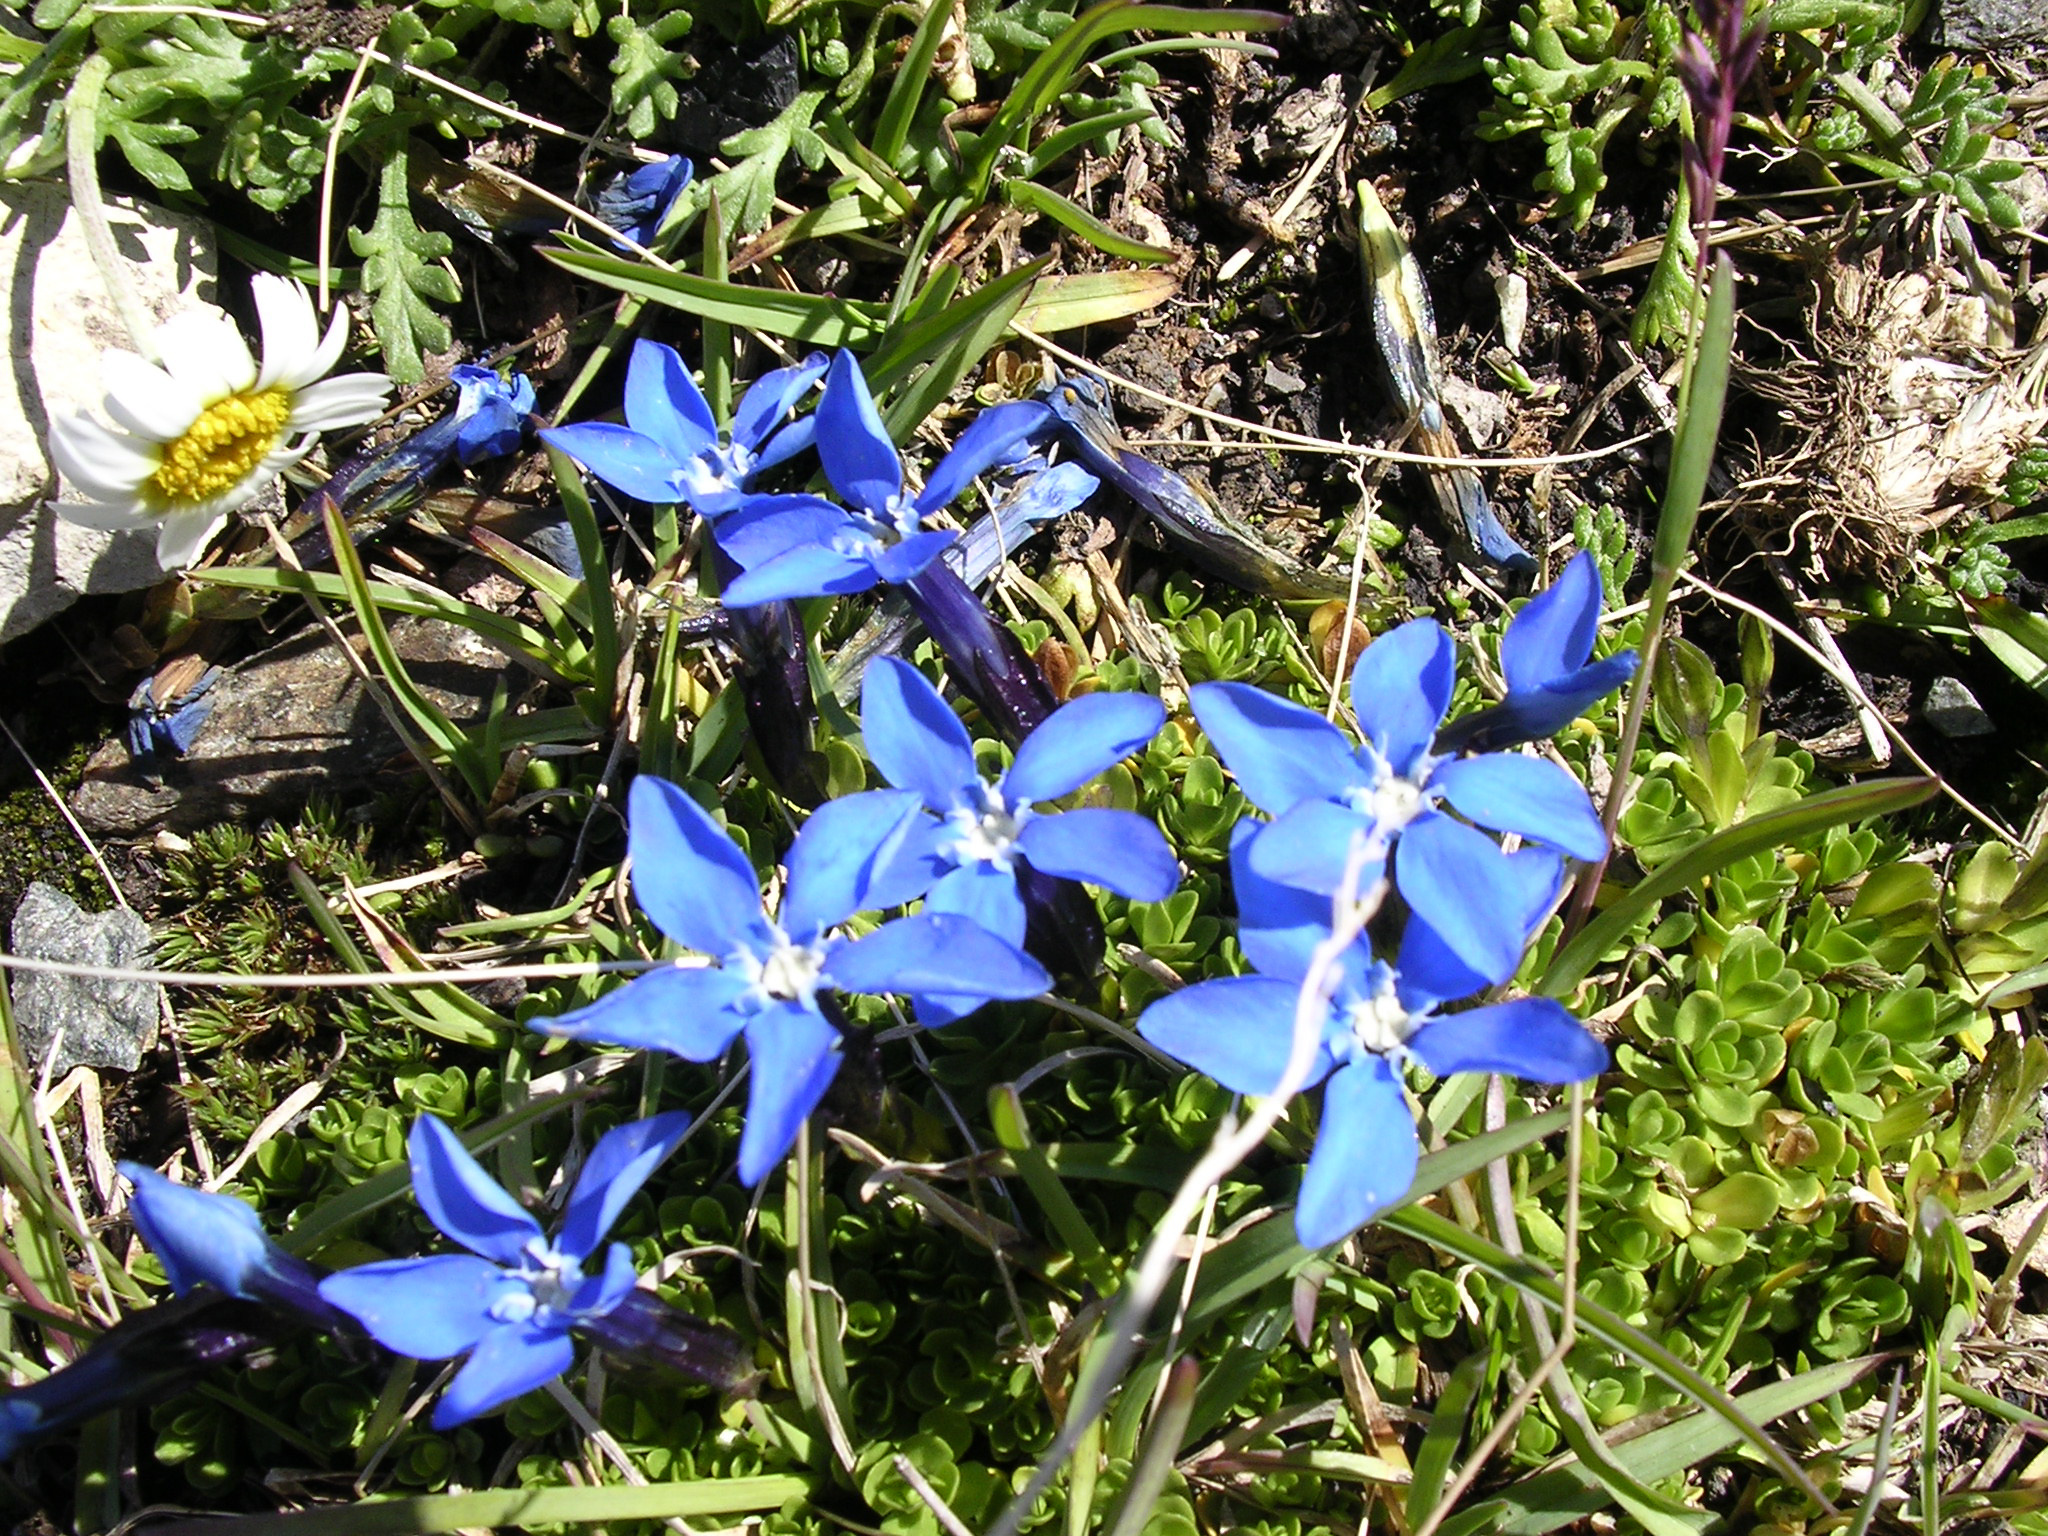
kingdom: Plantae
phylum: Tracheophyta
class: Magnoliopsida
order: Gentianales
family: Gentianaceae
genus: Gentiana
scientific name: Gentiana bavarica
